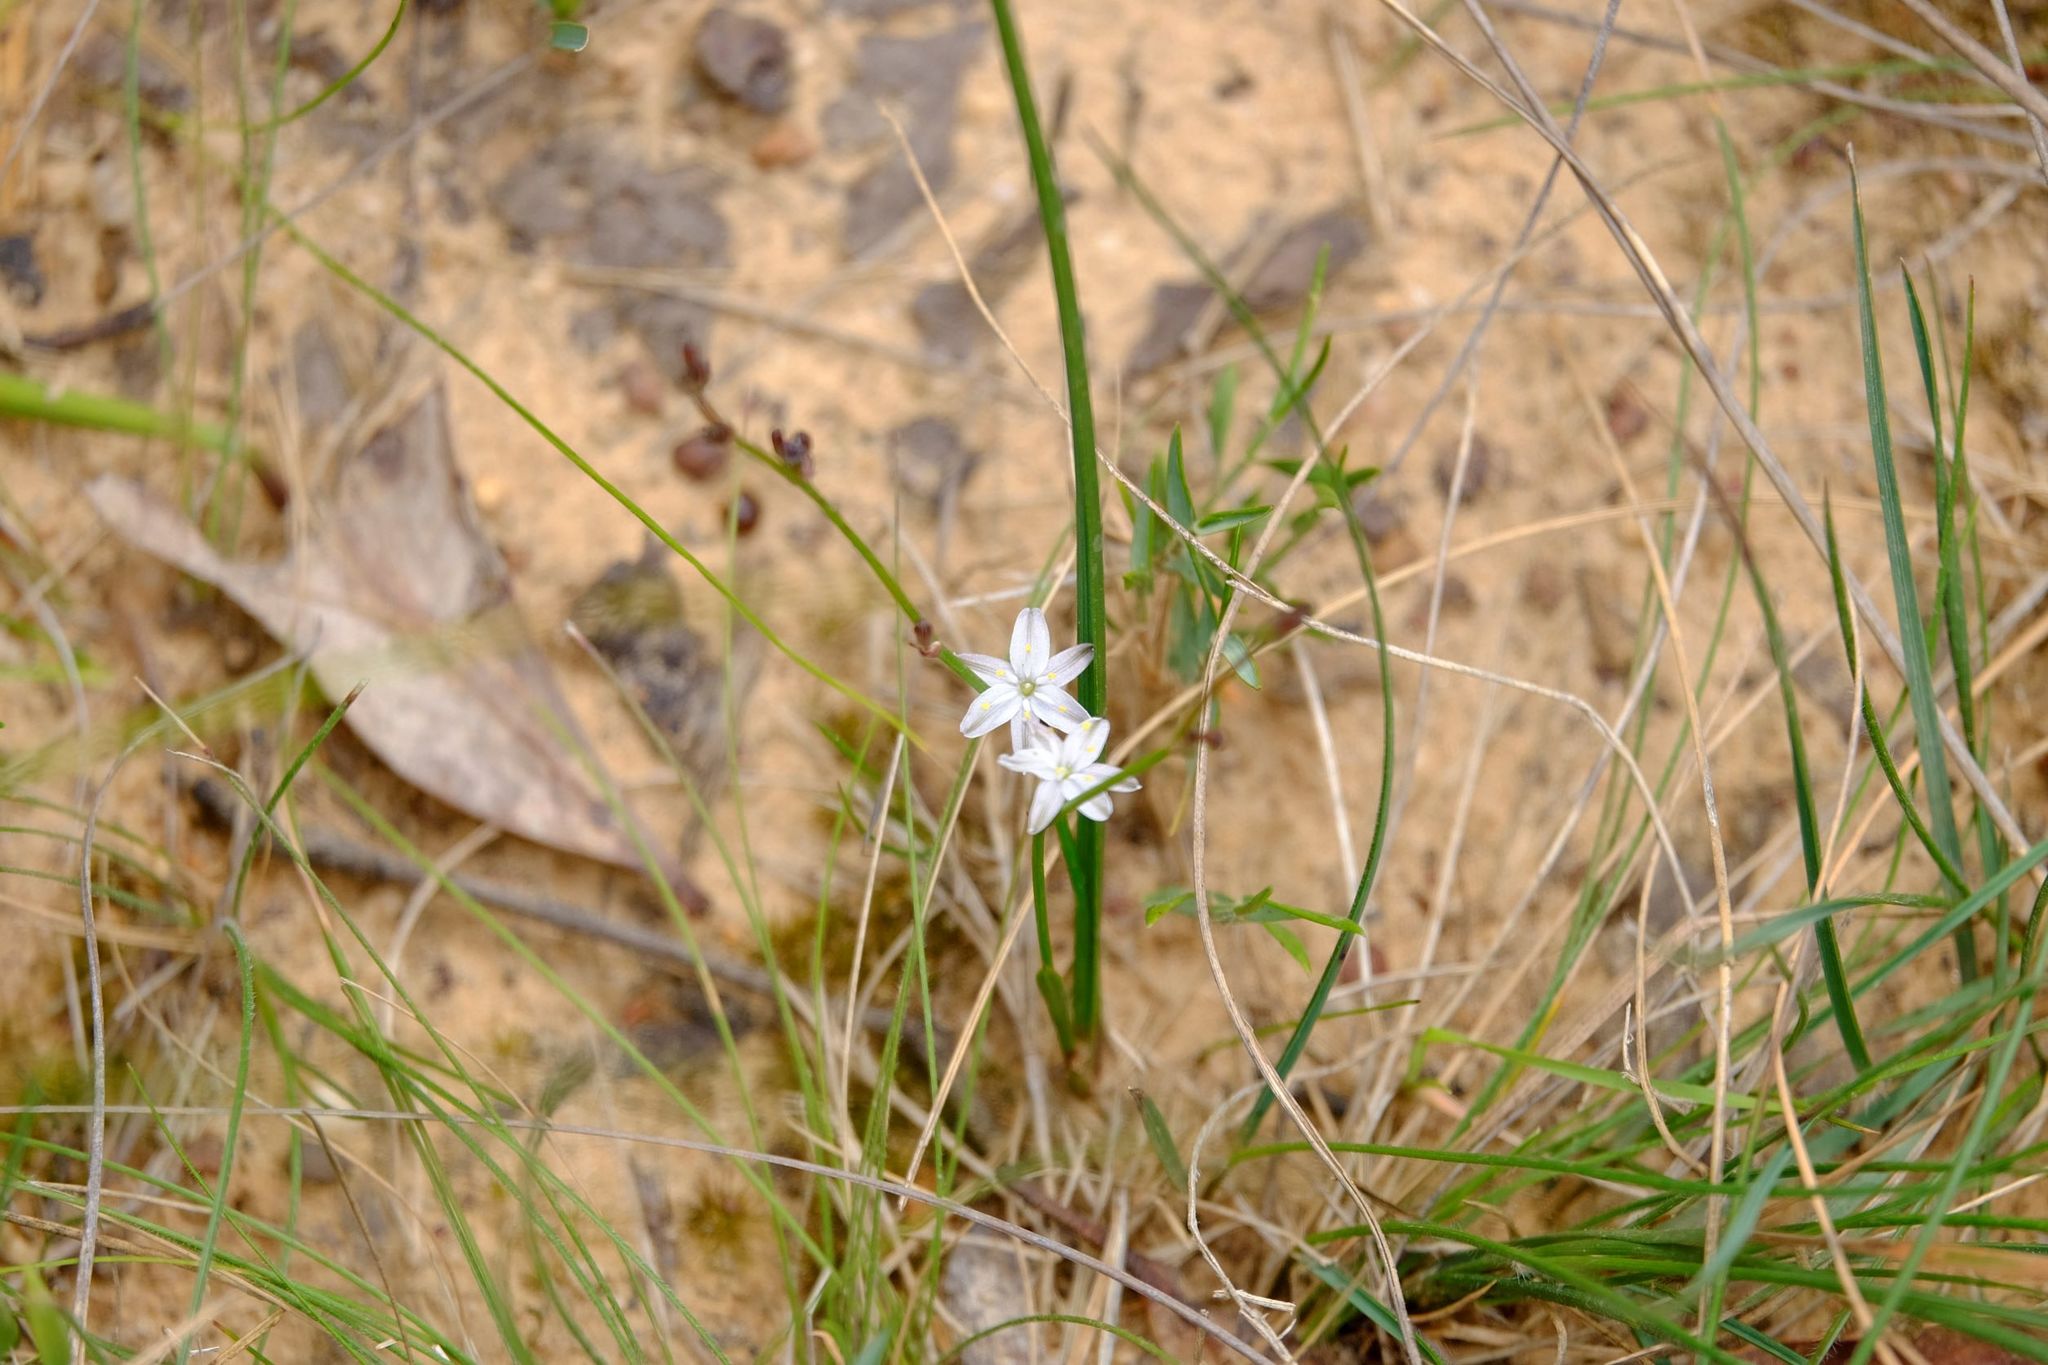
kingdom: Plantae
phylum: Tracheophyta
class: Liliopsida
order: Asparagales
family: Asphodelaceae
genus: Caesia
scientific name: Caesia parviflora
